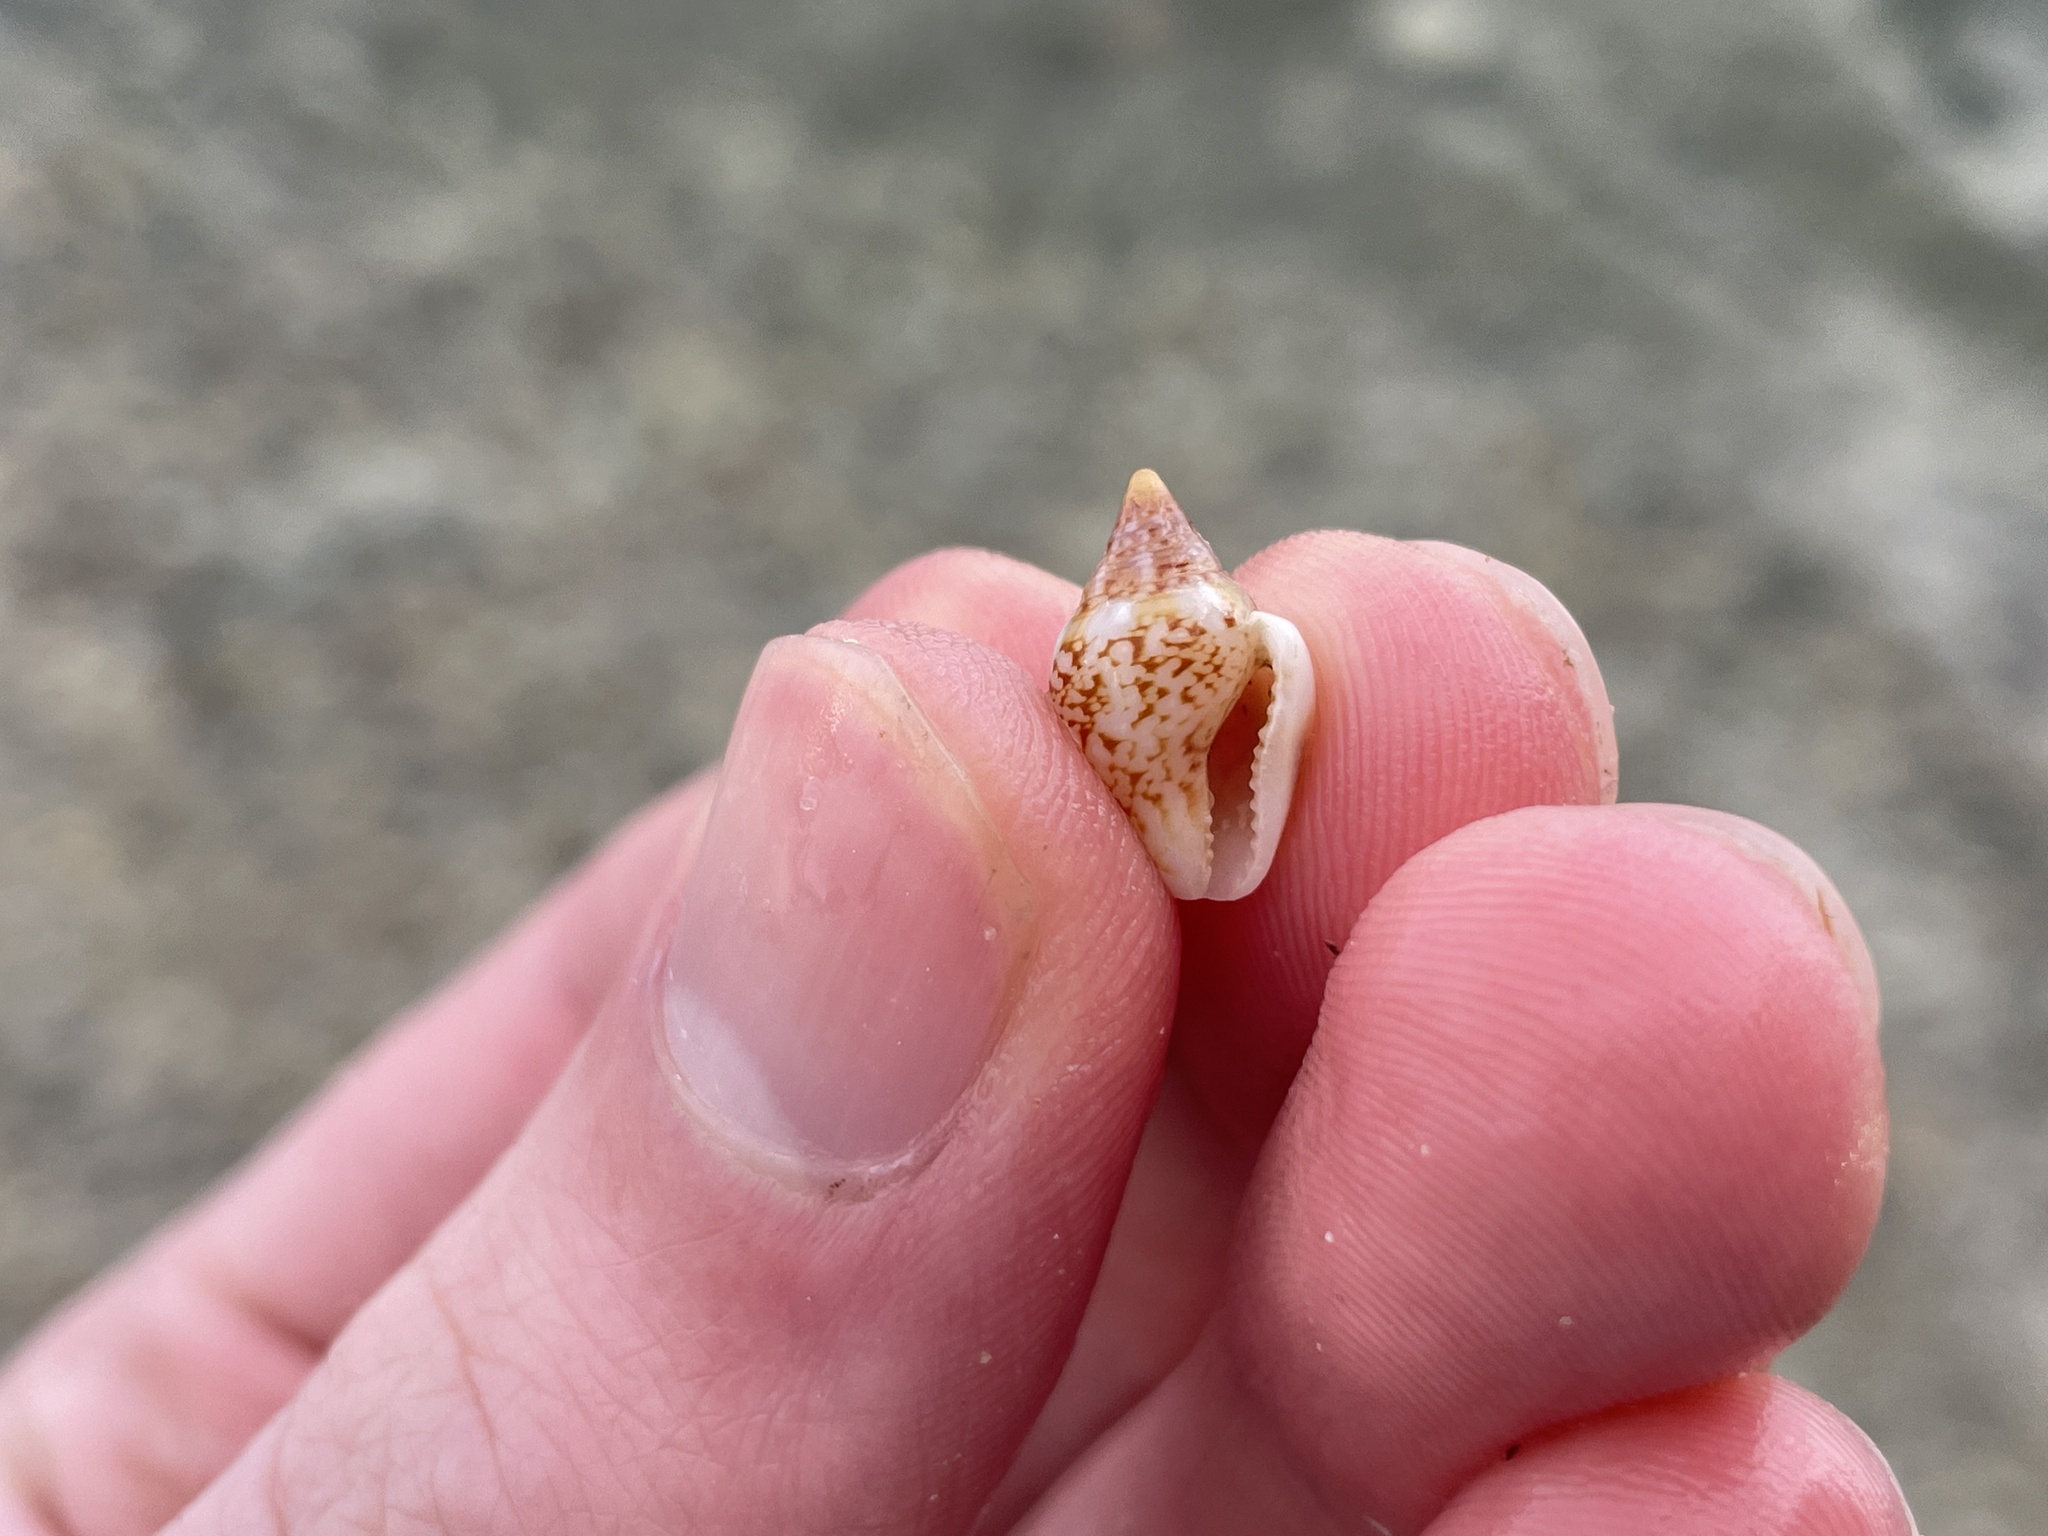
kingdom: Animalia
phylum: Mollusca
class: Gastropoda
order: Neogastropoda
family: Columbellidae
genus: Columbella
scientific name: Columbella rustica
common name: Rustic dove shell
